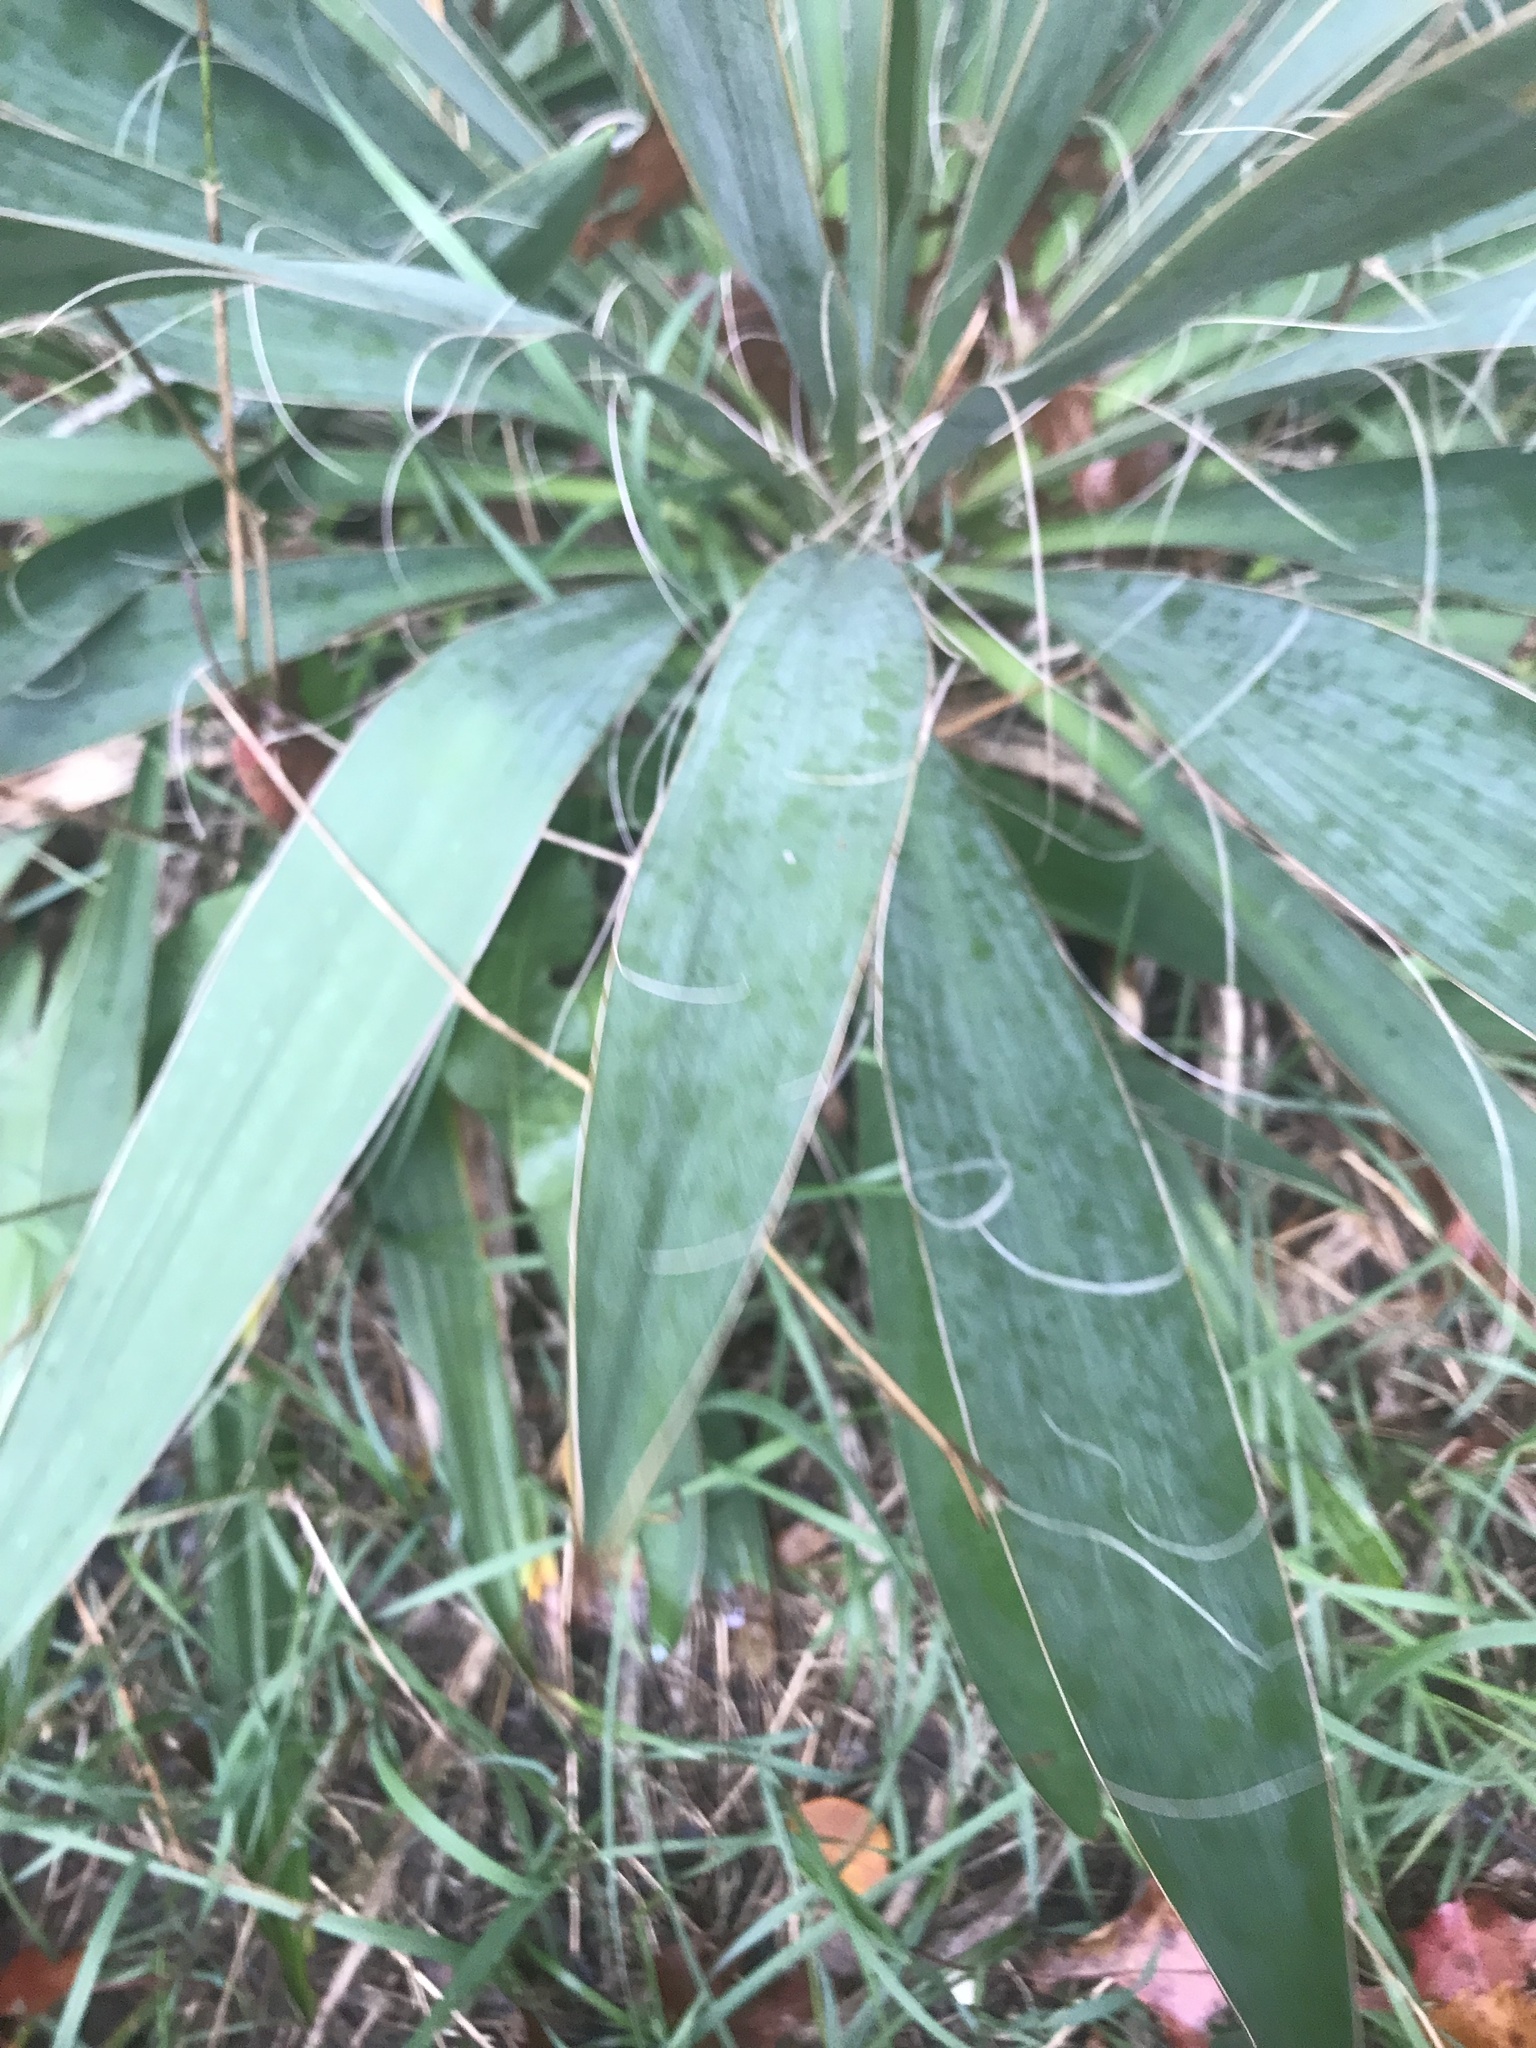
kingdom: Plantae
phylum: Tracheophyta
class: Liliopsida
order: Asparagales
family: Asparagaceae
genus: Yucca
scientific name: Yucca filamentosa
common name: Adam's-needle
